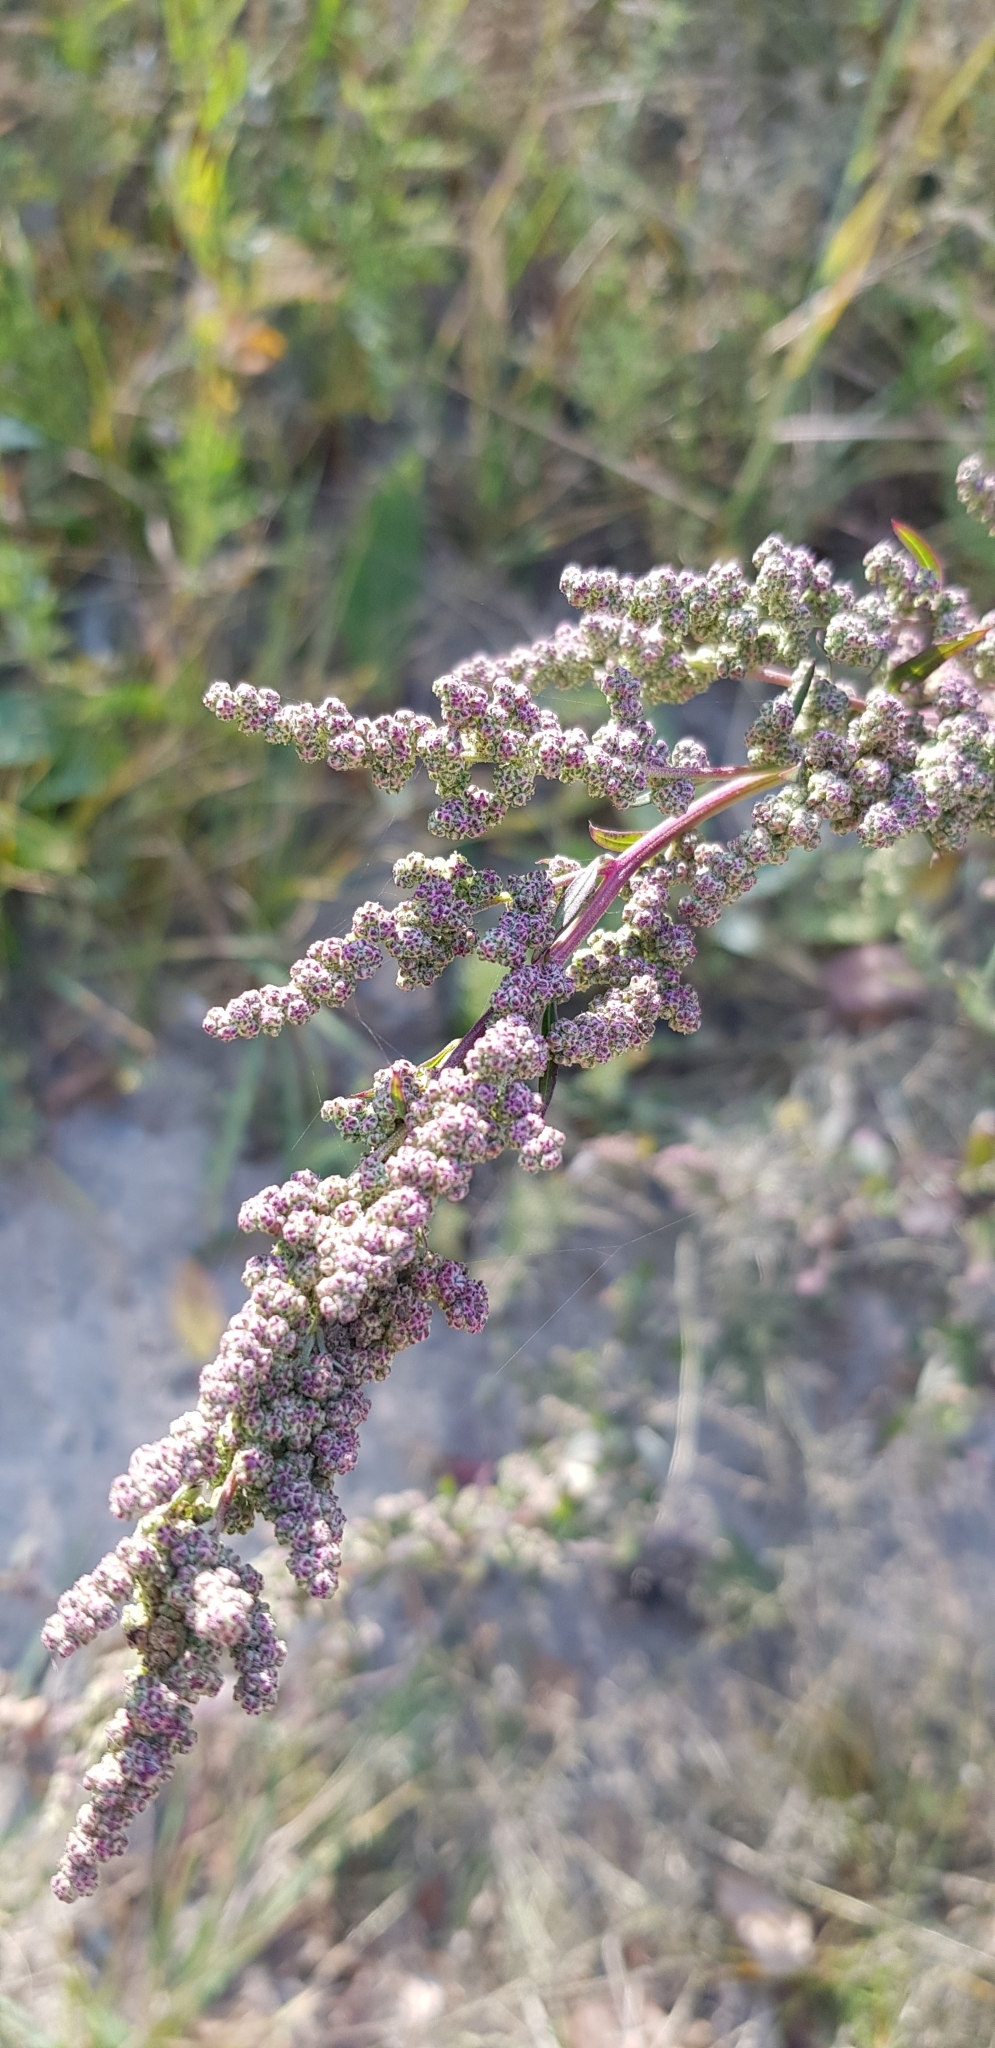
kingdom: Plantae
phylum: Tracheophyta
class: Magnoliopsida
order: Caryophyllales
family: Amaranthaceae
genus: Chenopodium
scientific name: Chenopodium betaceum
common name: Striped goosefoot
